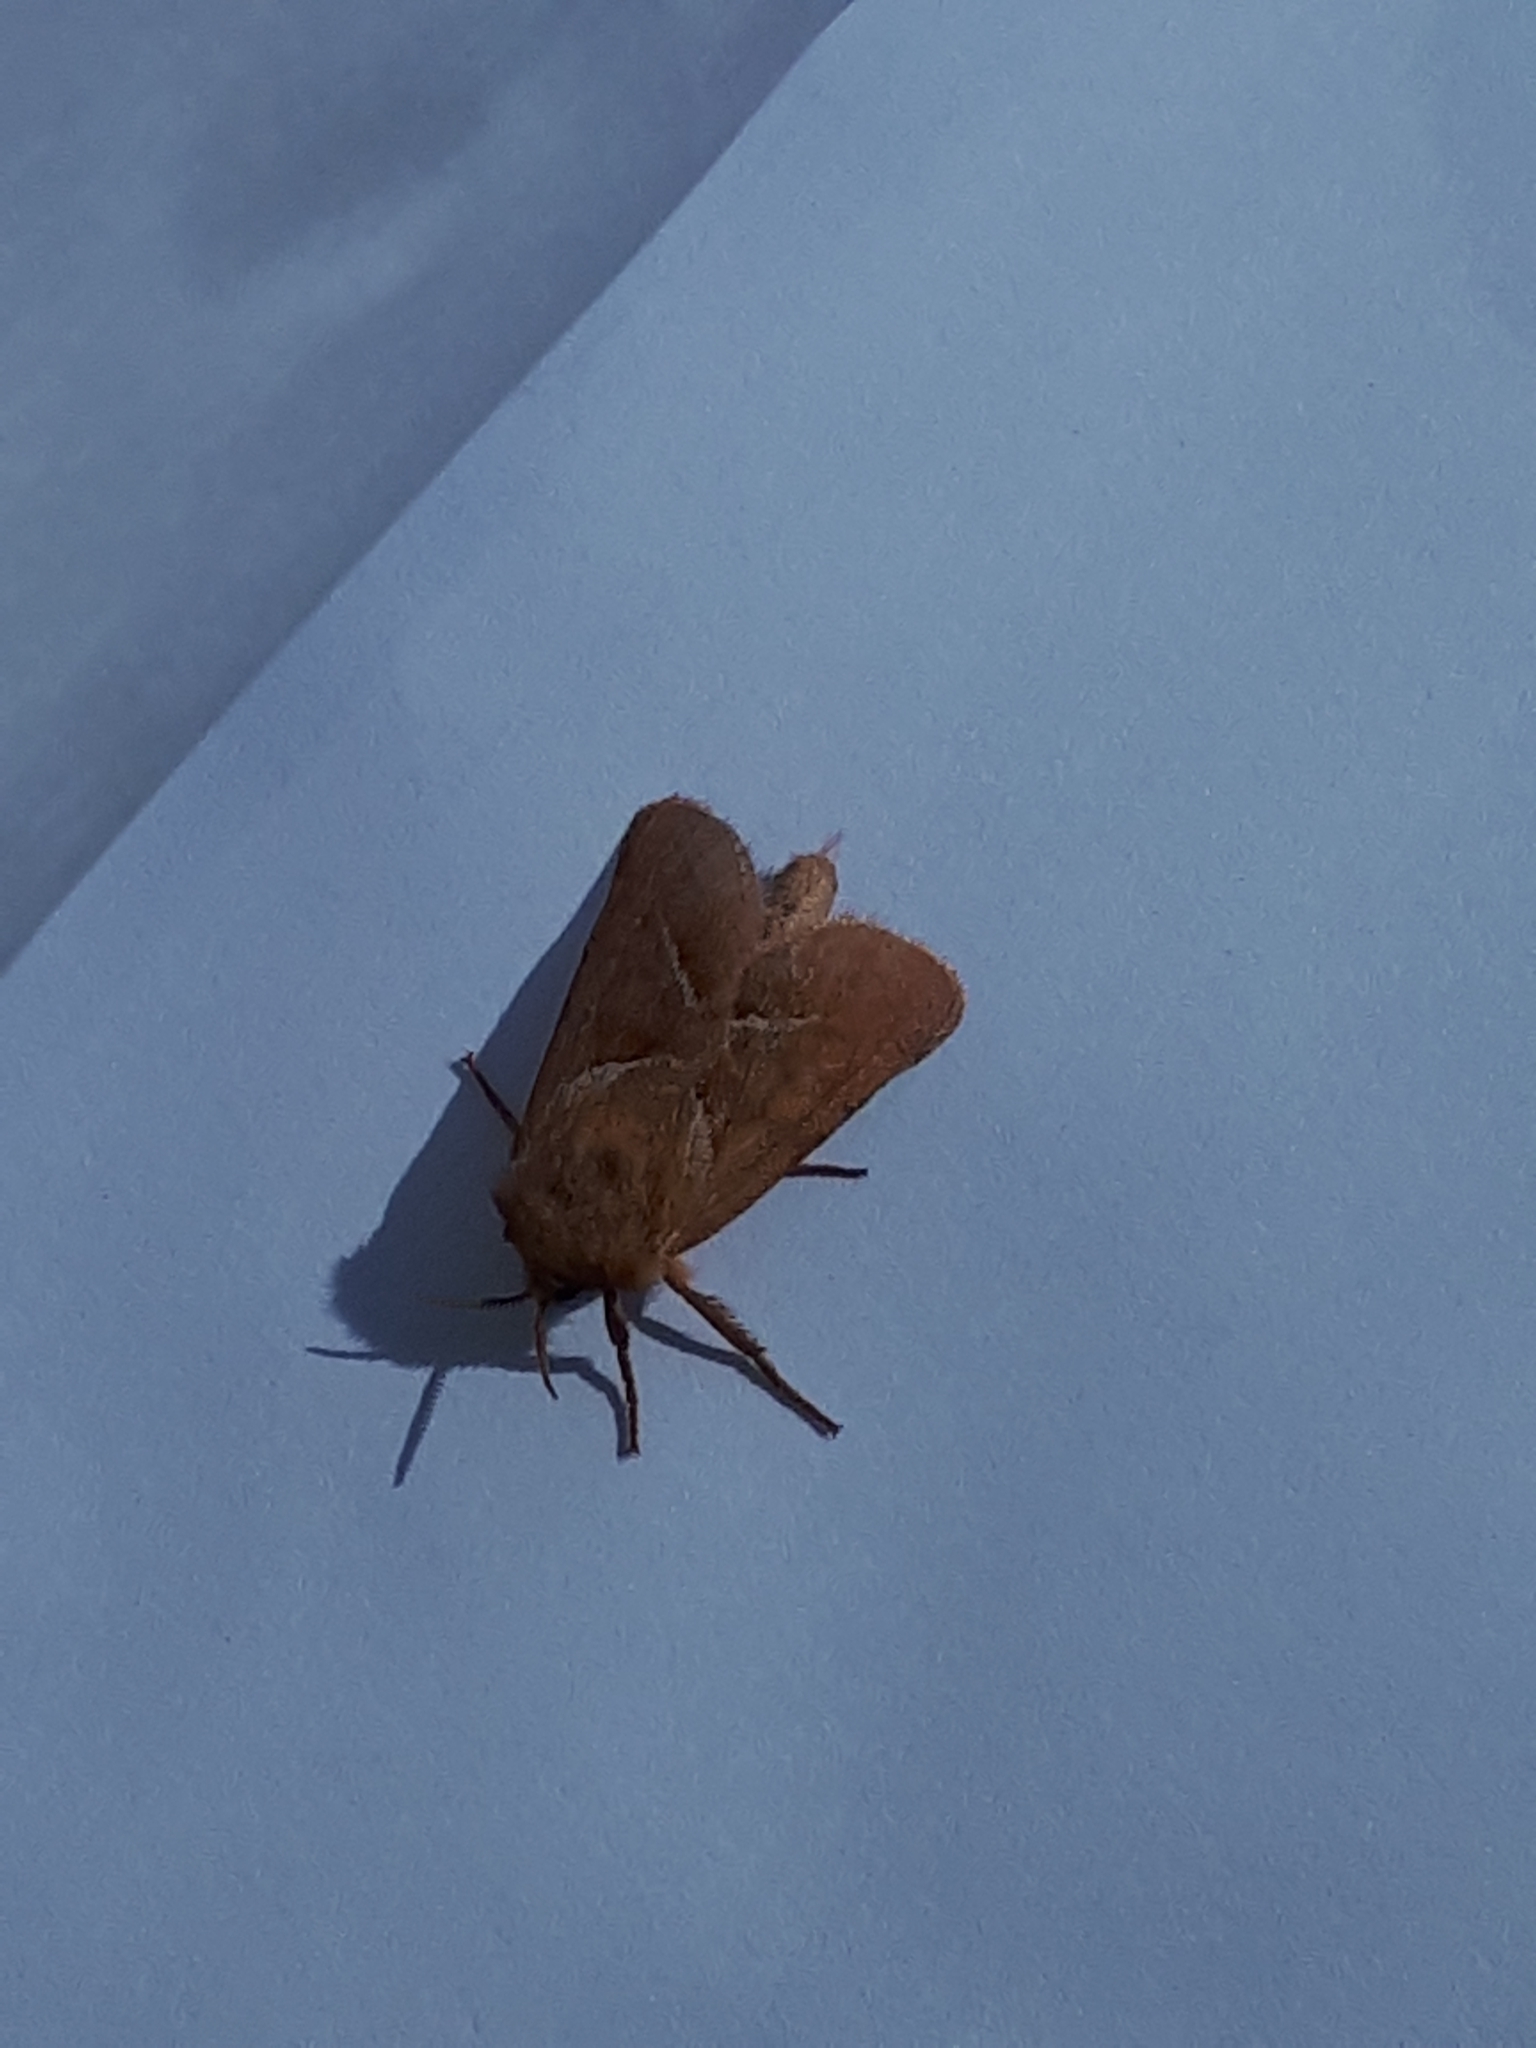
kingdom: Animalia
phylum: Arthropoda
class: Insecta
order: Lepidoptera
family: Hepialidae
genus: Triodia
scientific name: Triodia sylvina
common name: Orange swift
